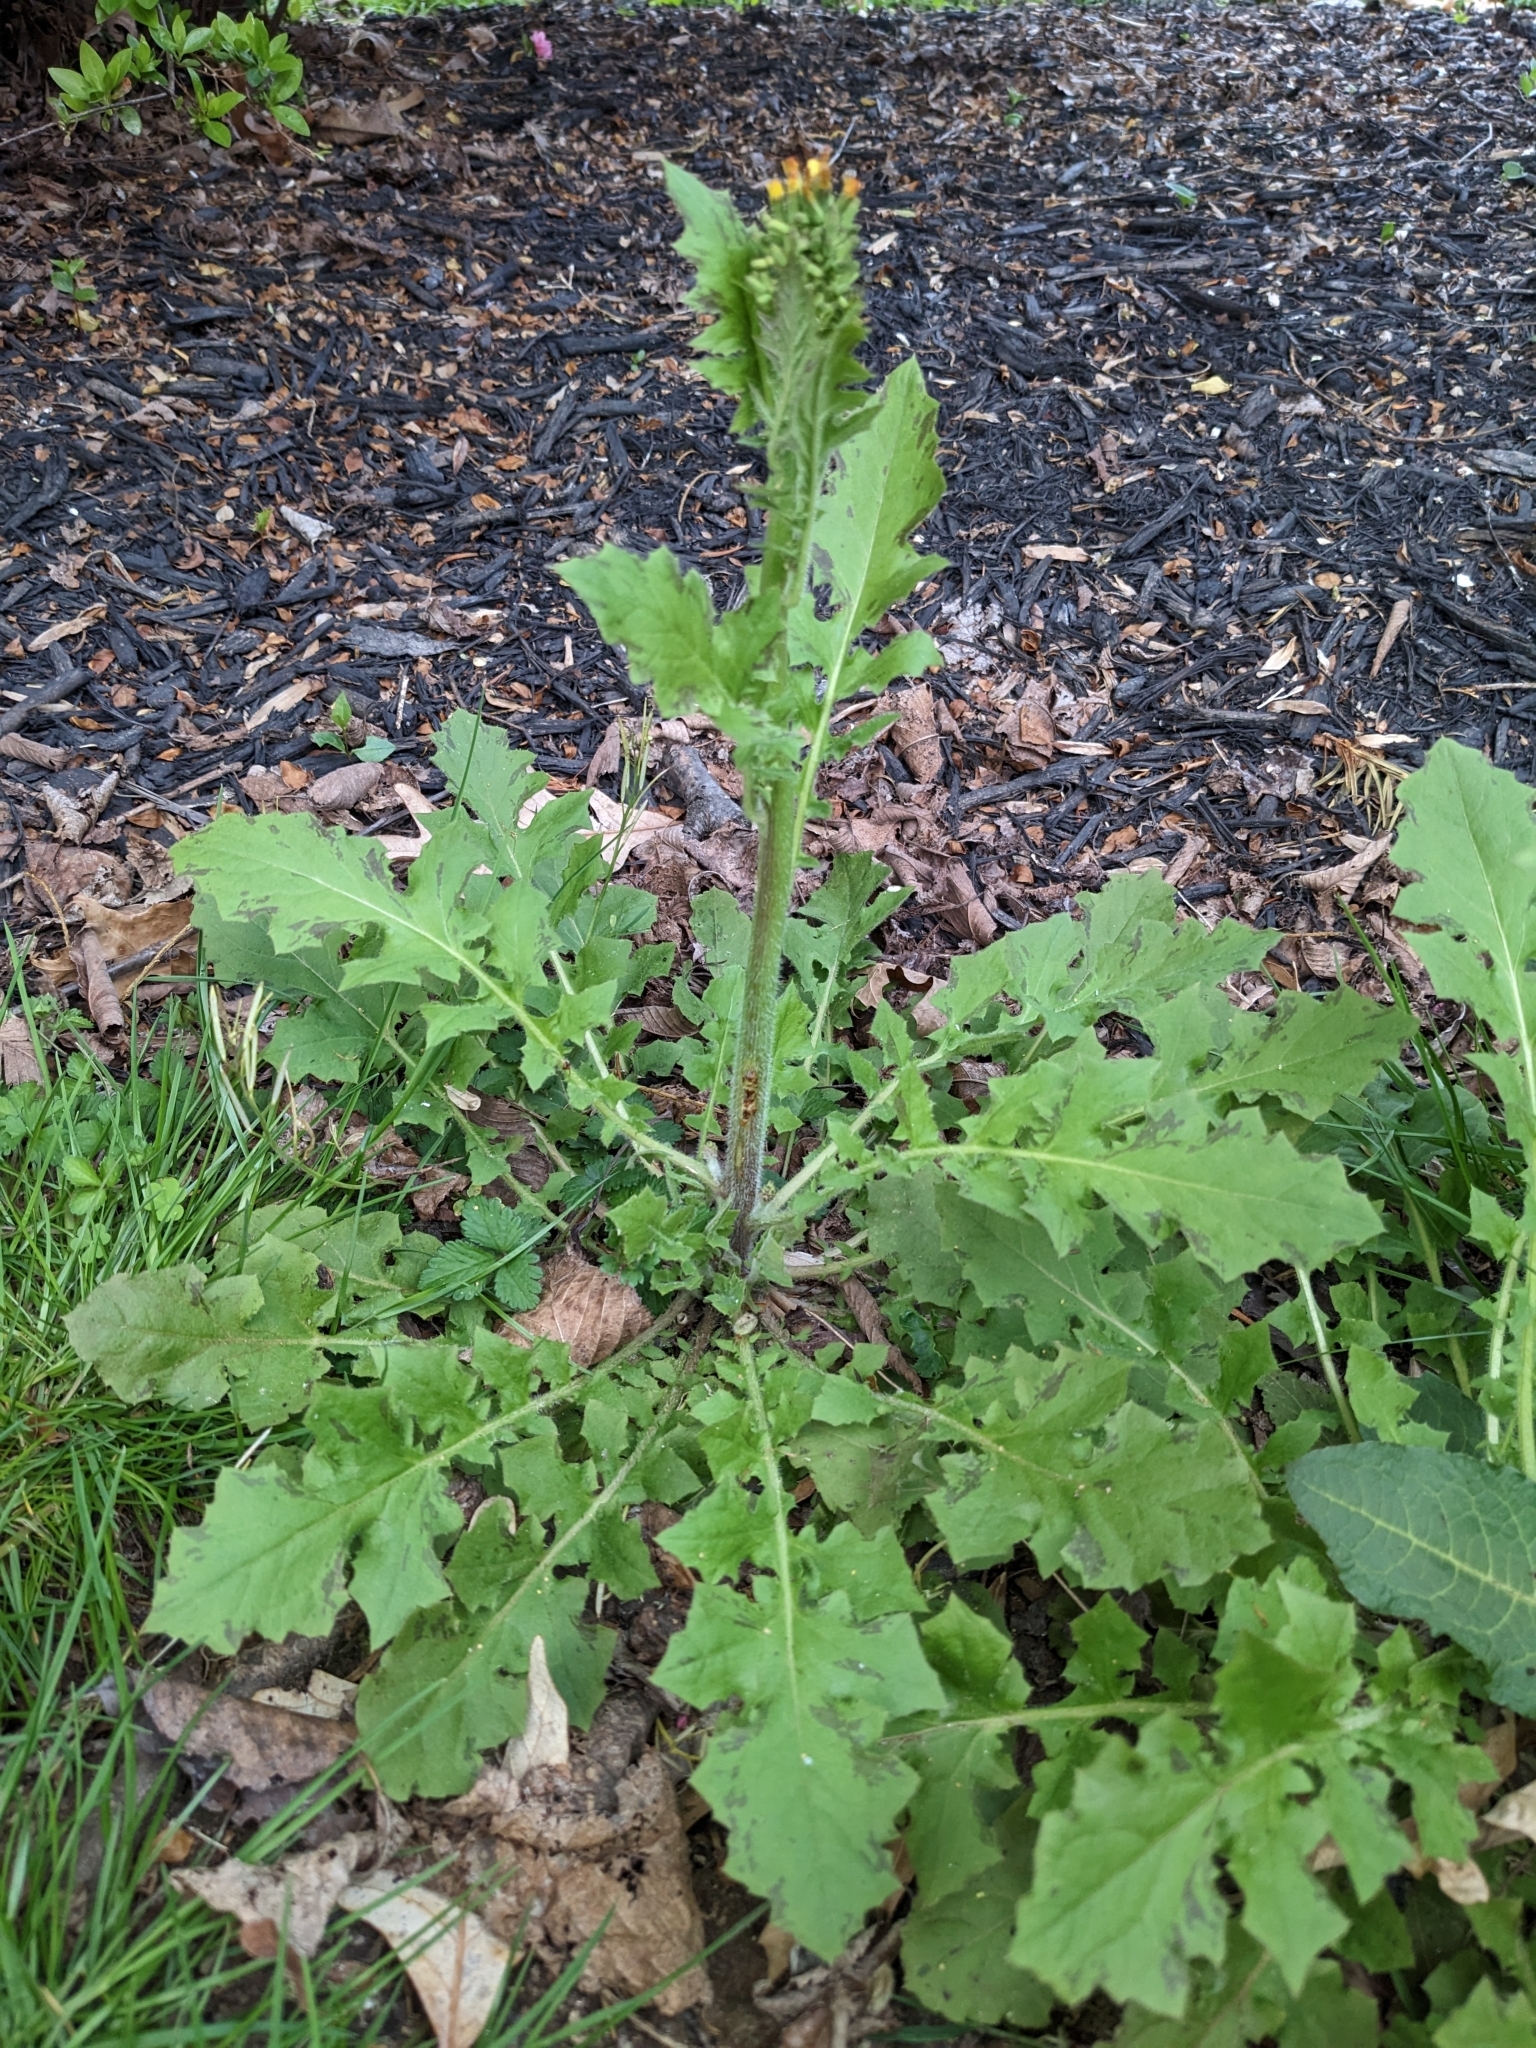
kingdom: Plantae
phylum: Tracheophyta
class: Magnoliopsida
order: Asterales
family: Asteraceae
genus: Youngia
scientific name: Youngia japonica
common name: Oriental false hawksbeard
